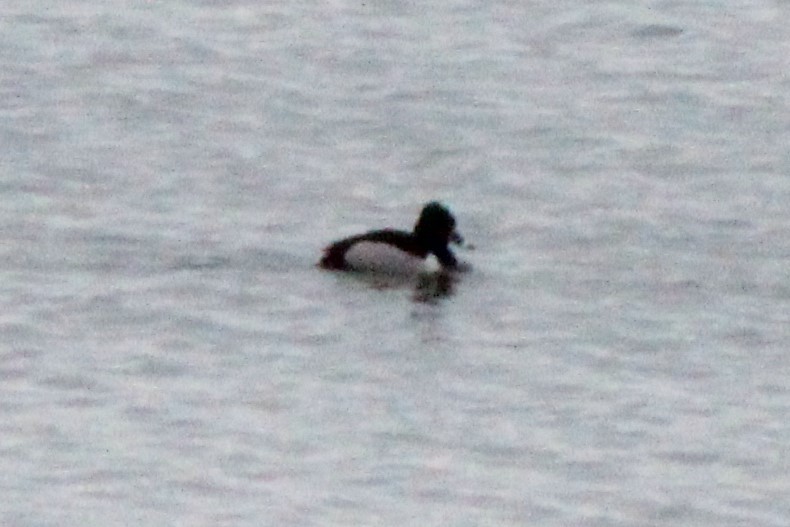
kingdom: Animalia
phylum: Chordata
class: Aves
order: Anseriformes
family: Anatidae
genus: Aythya
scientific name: Aythya collaris
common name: Ring-necked duck
